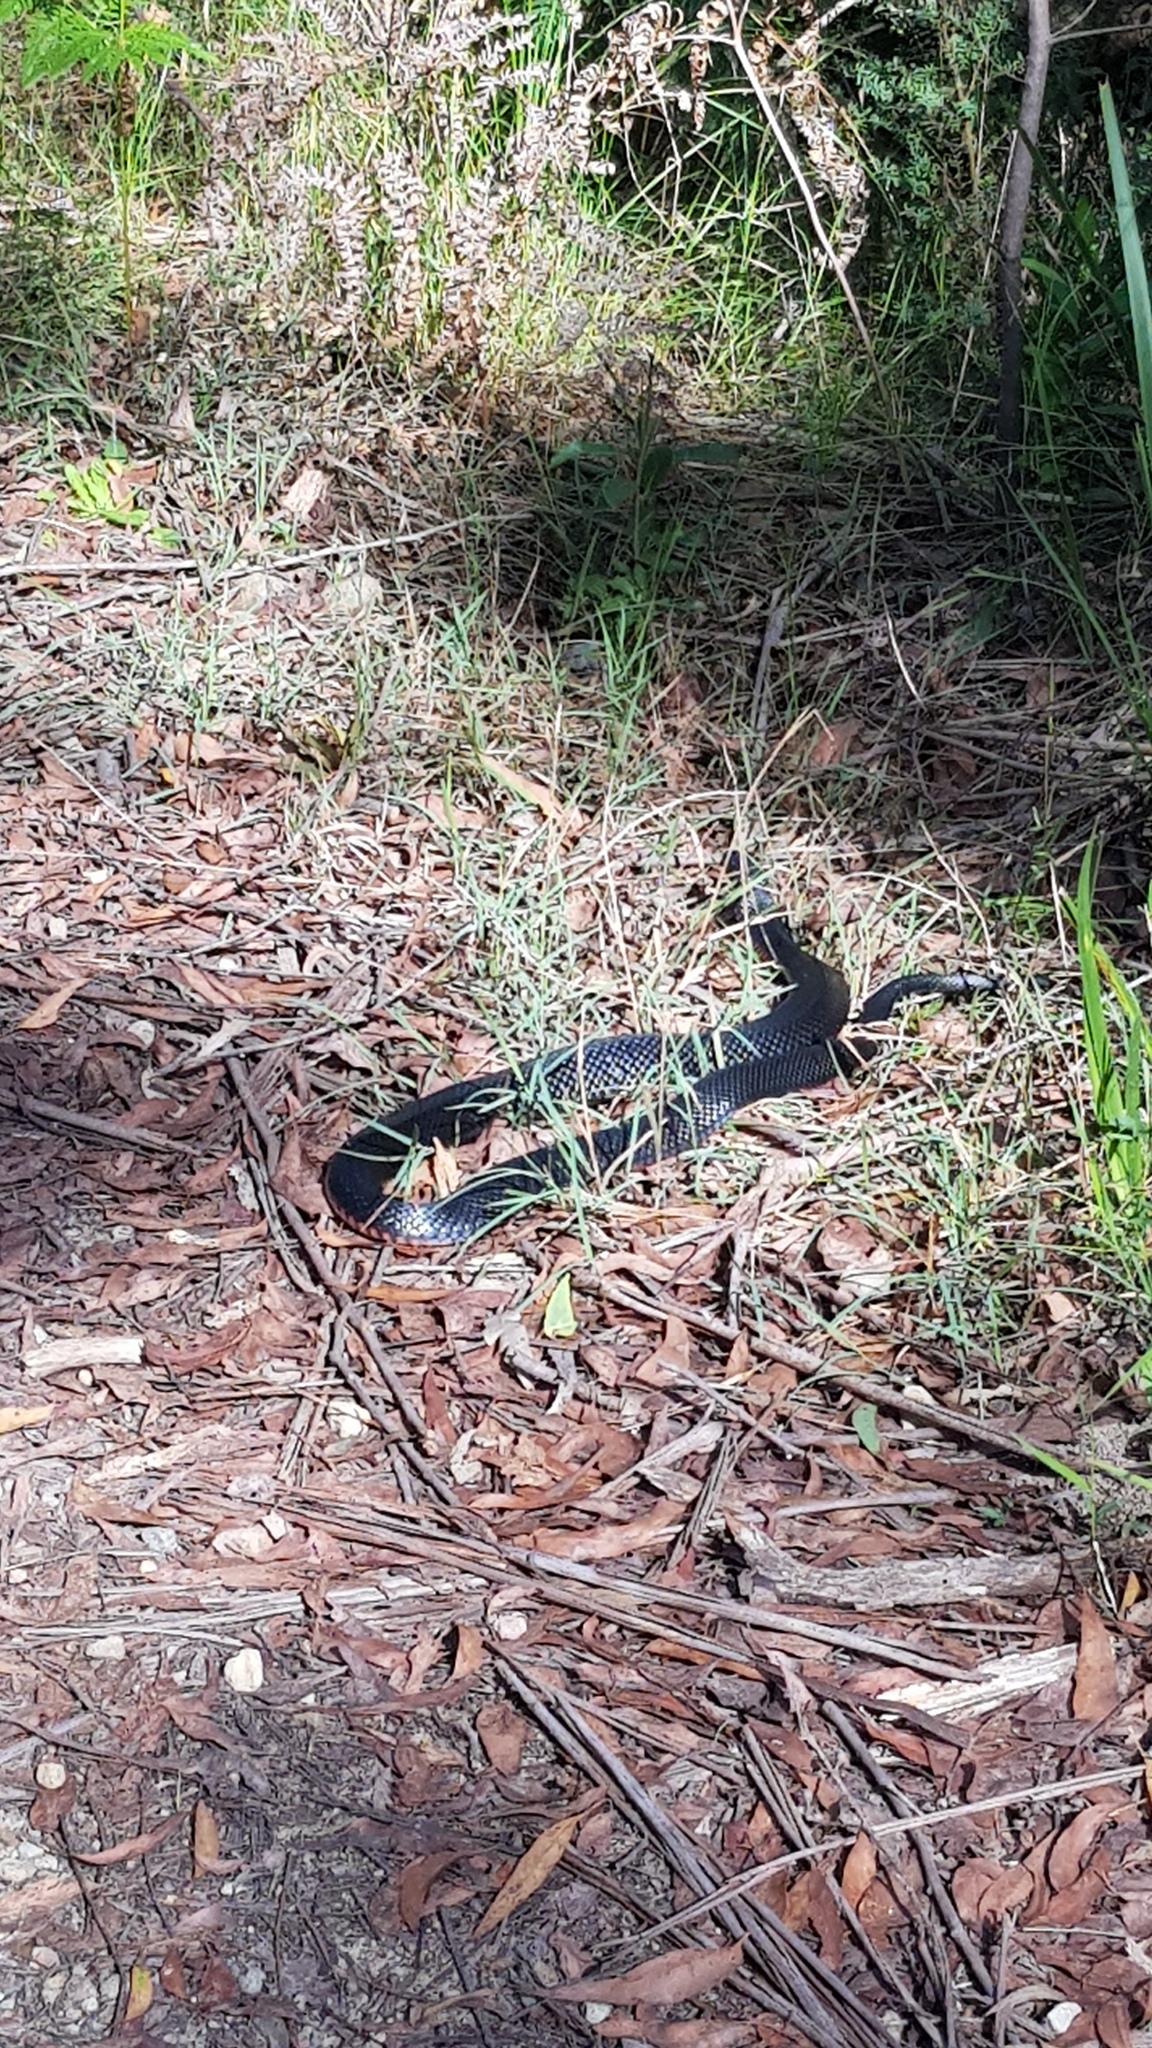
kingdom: Animalia
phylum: Chordata
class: Squamata
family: Elapidae
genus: Pseudechis
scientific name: Pseudechis porphyriacus
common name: Australian black snake
